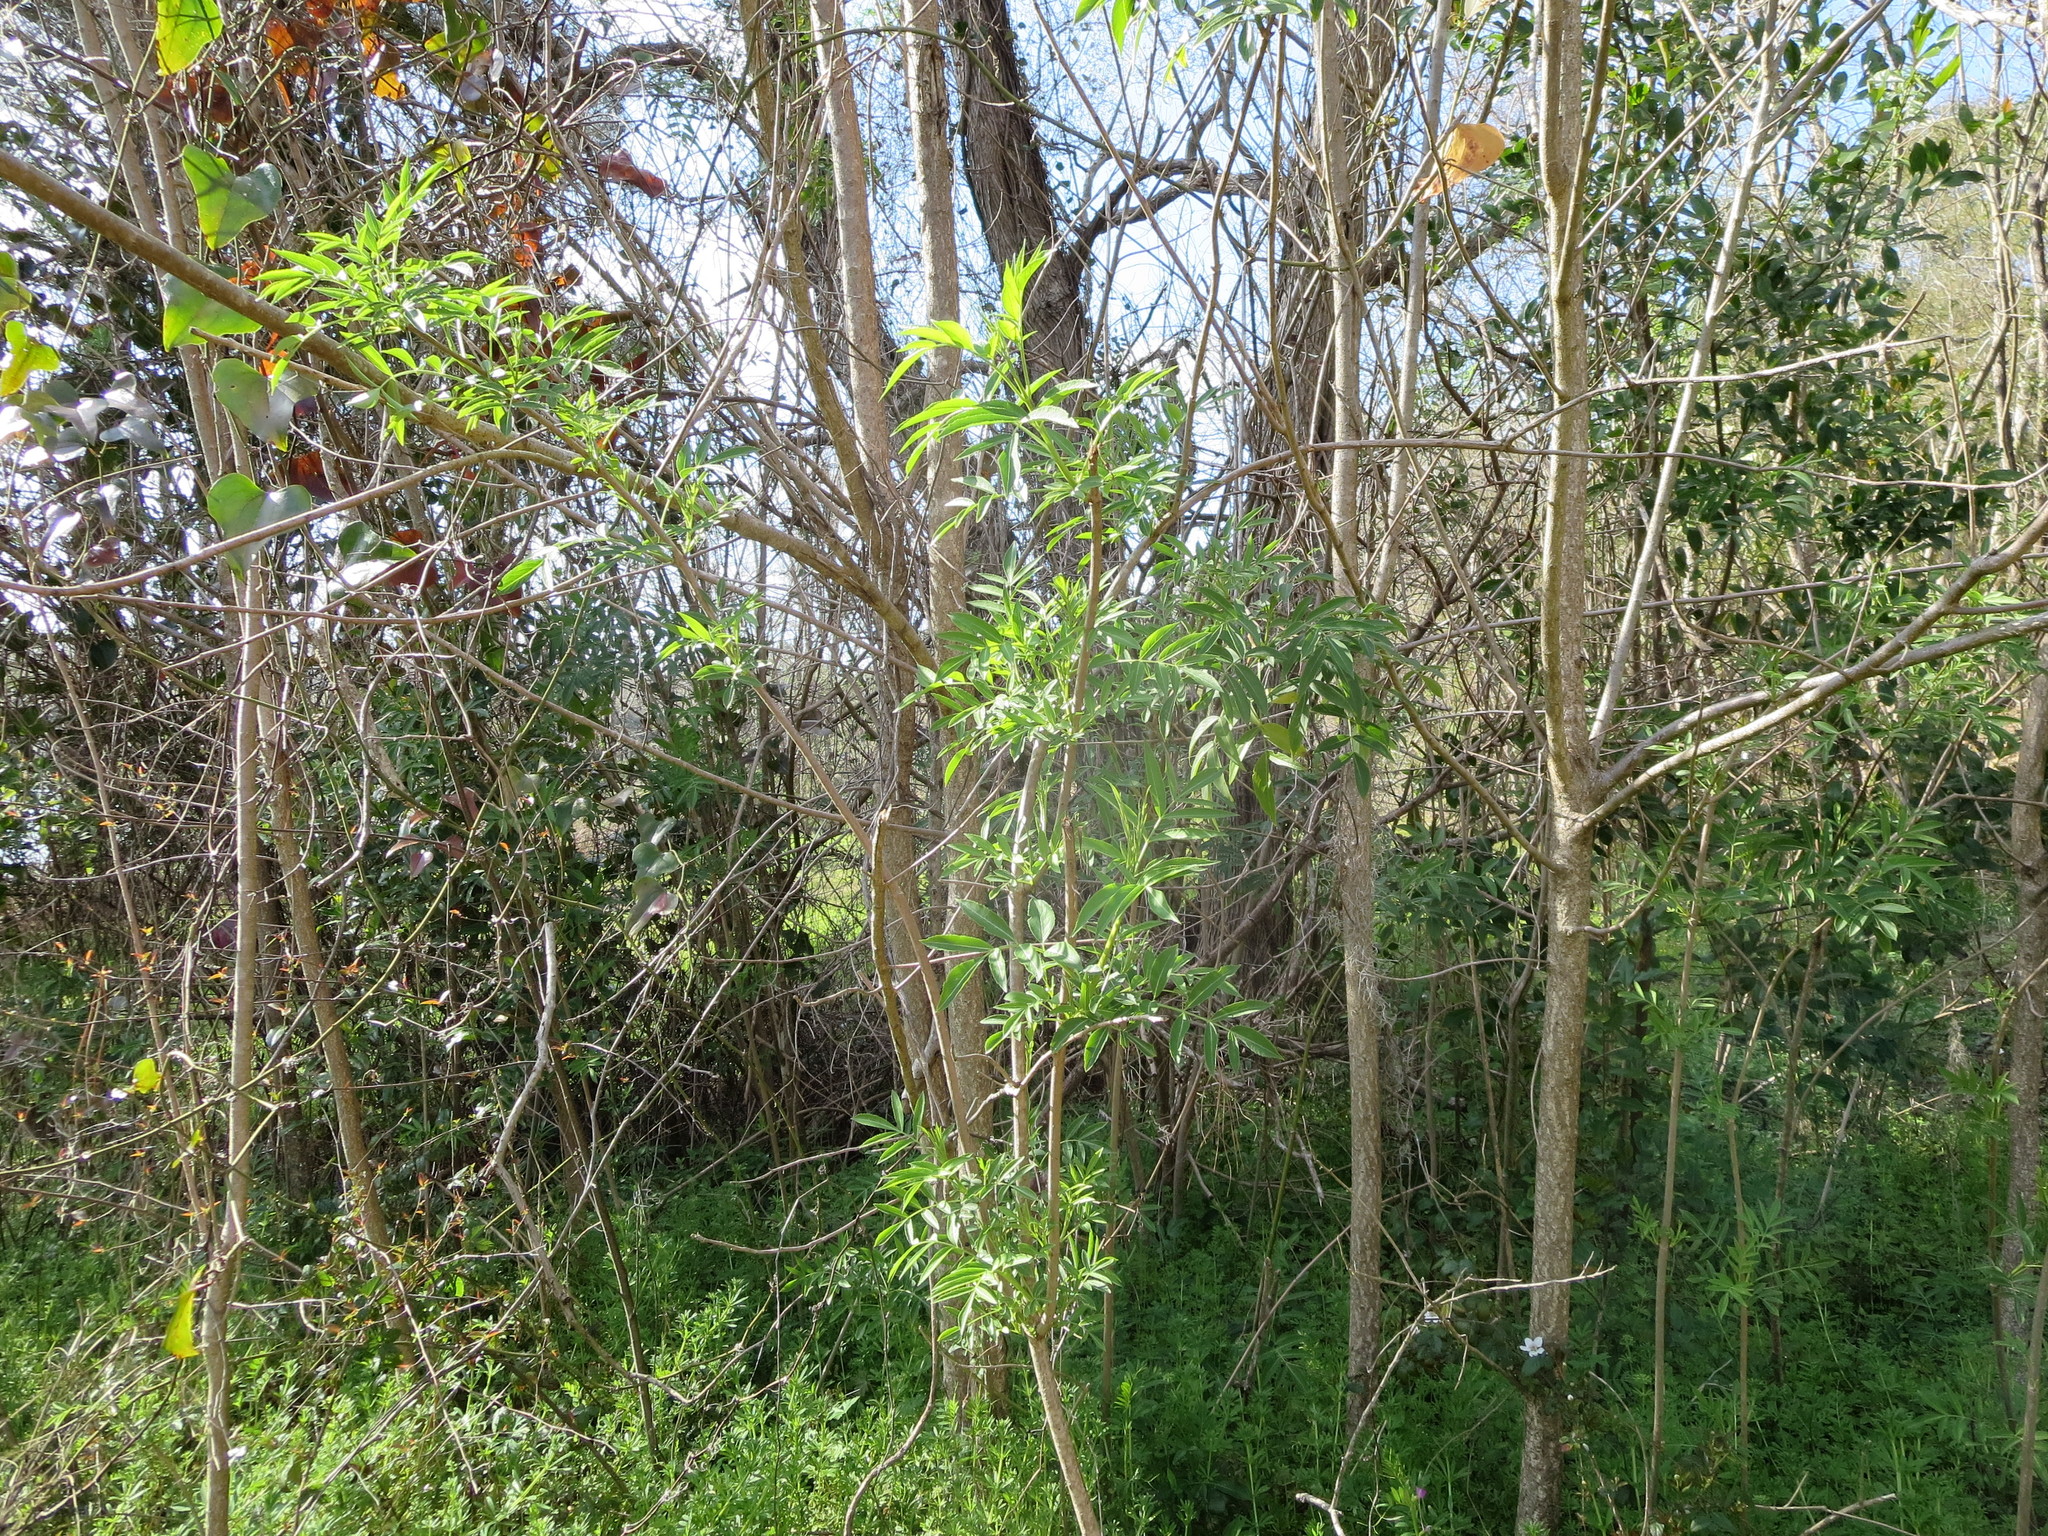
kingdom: Plantae
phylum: Tracheophyta
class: Magnoliopsida
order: Dipsacales
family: Viburnaceae
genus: Sambucus
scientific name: Sambucus canadensis
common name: American elder
